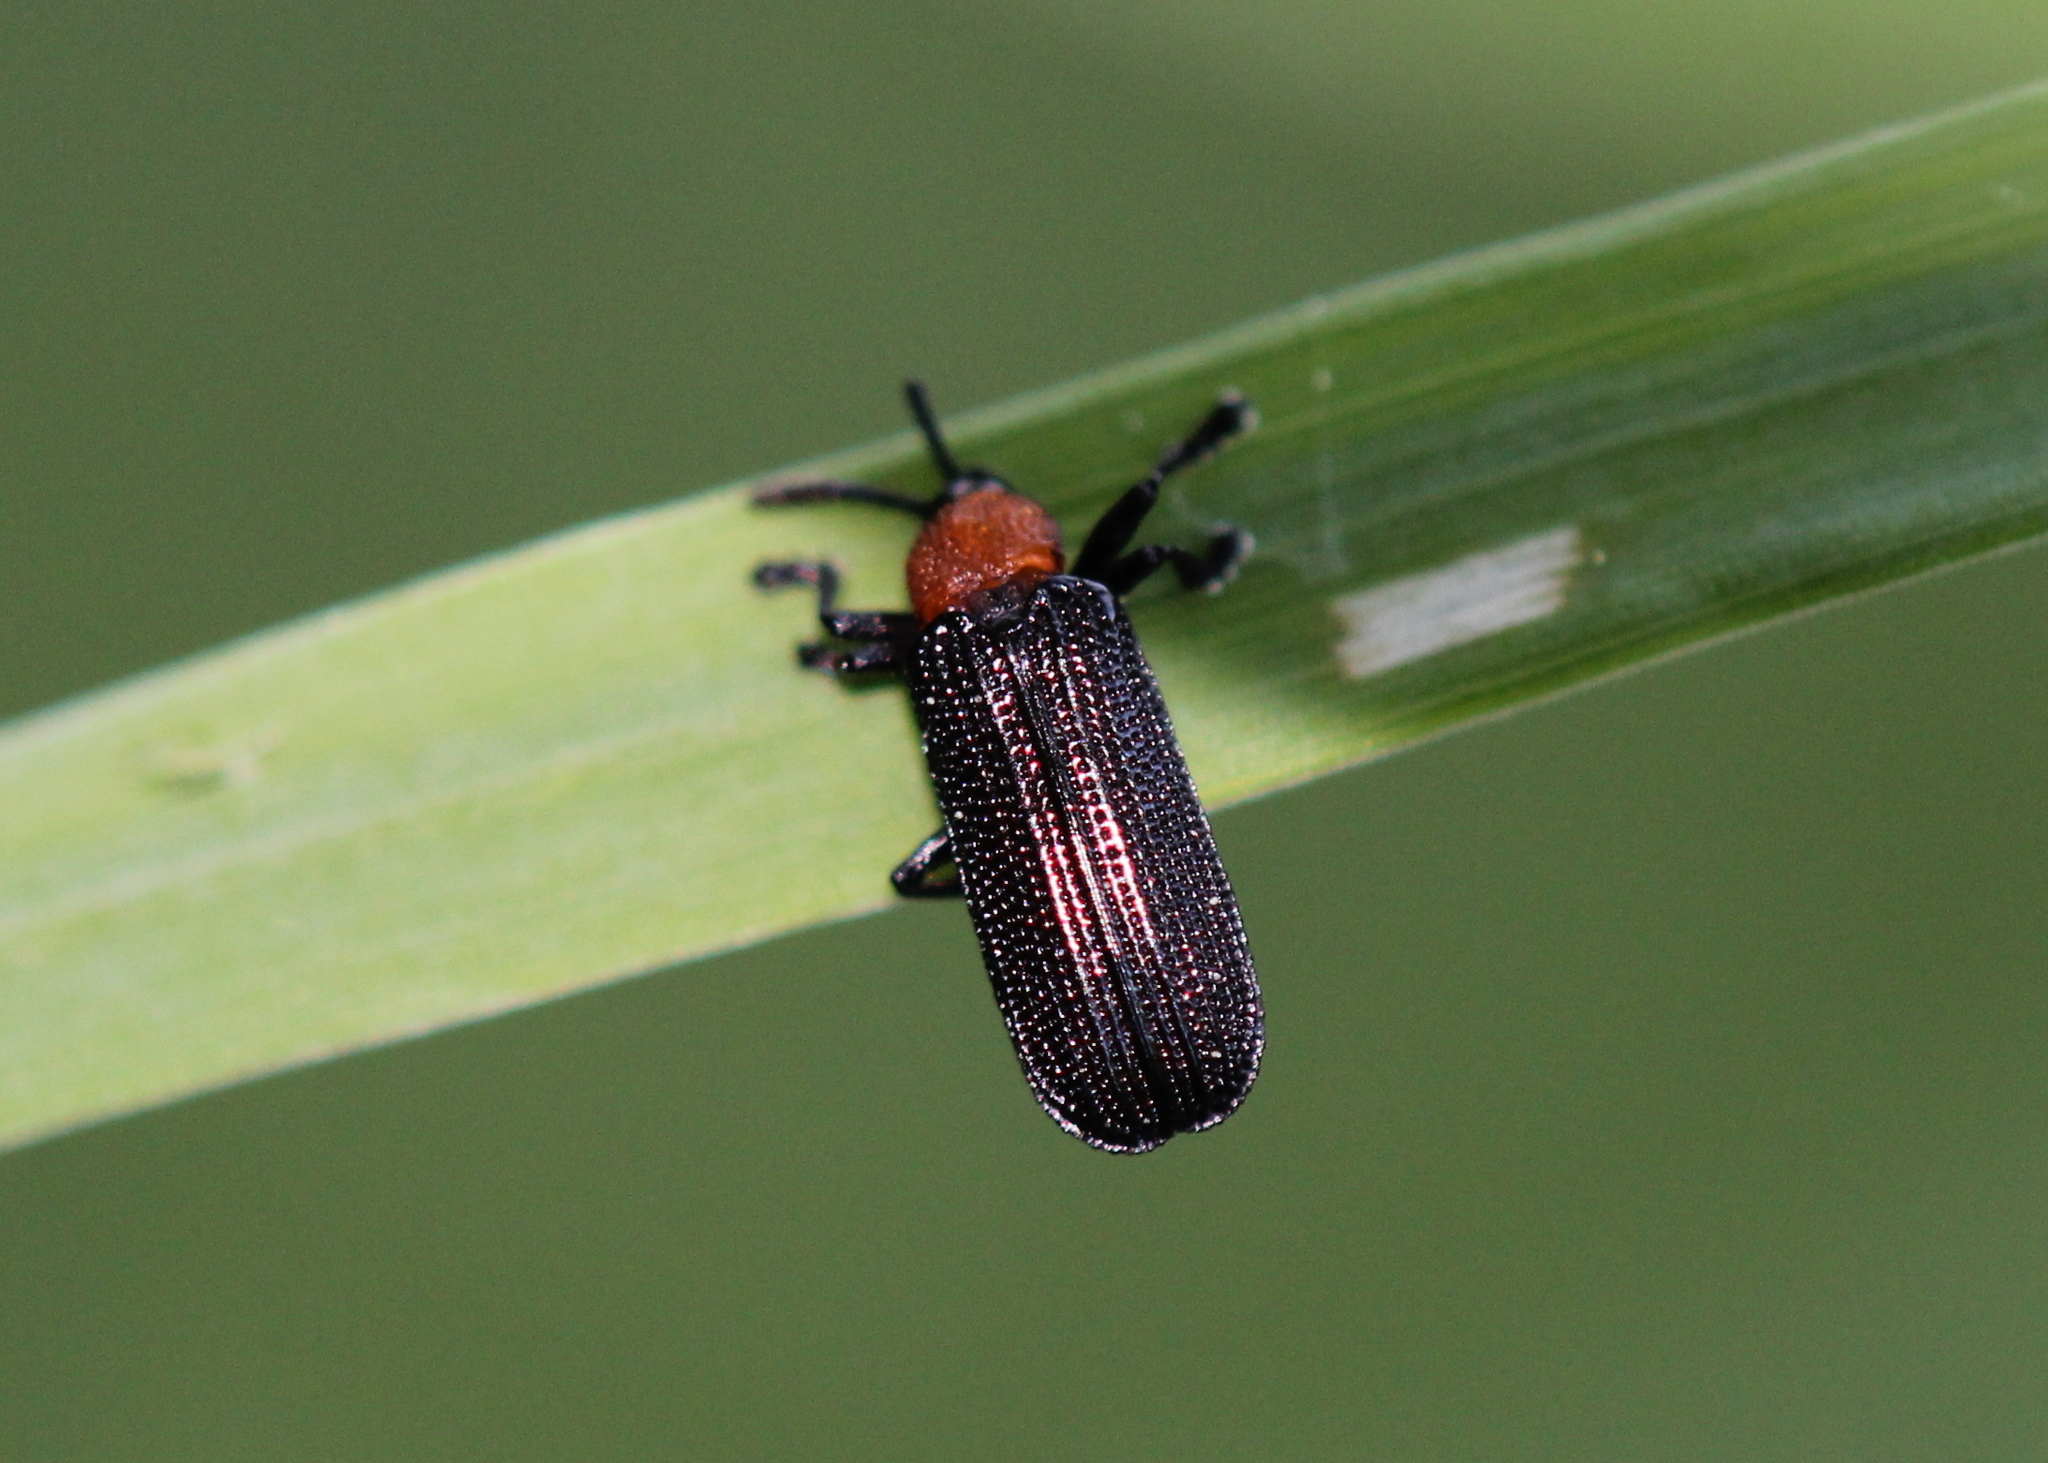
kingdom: Animalia
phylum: Arthropoda
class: Insecta
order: Coleoptera
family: Chrysomelidae
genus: Chalepus
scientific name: Chalepus walshii
